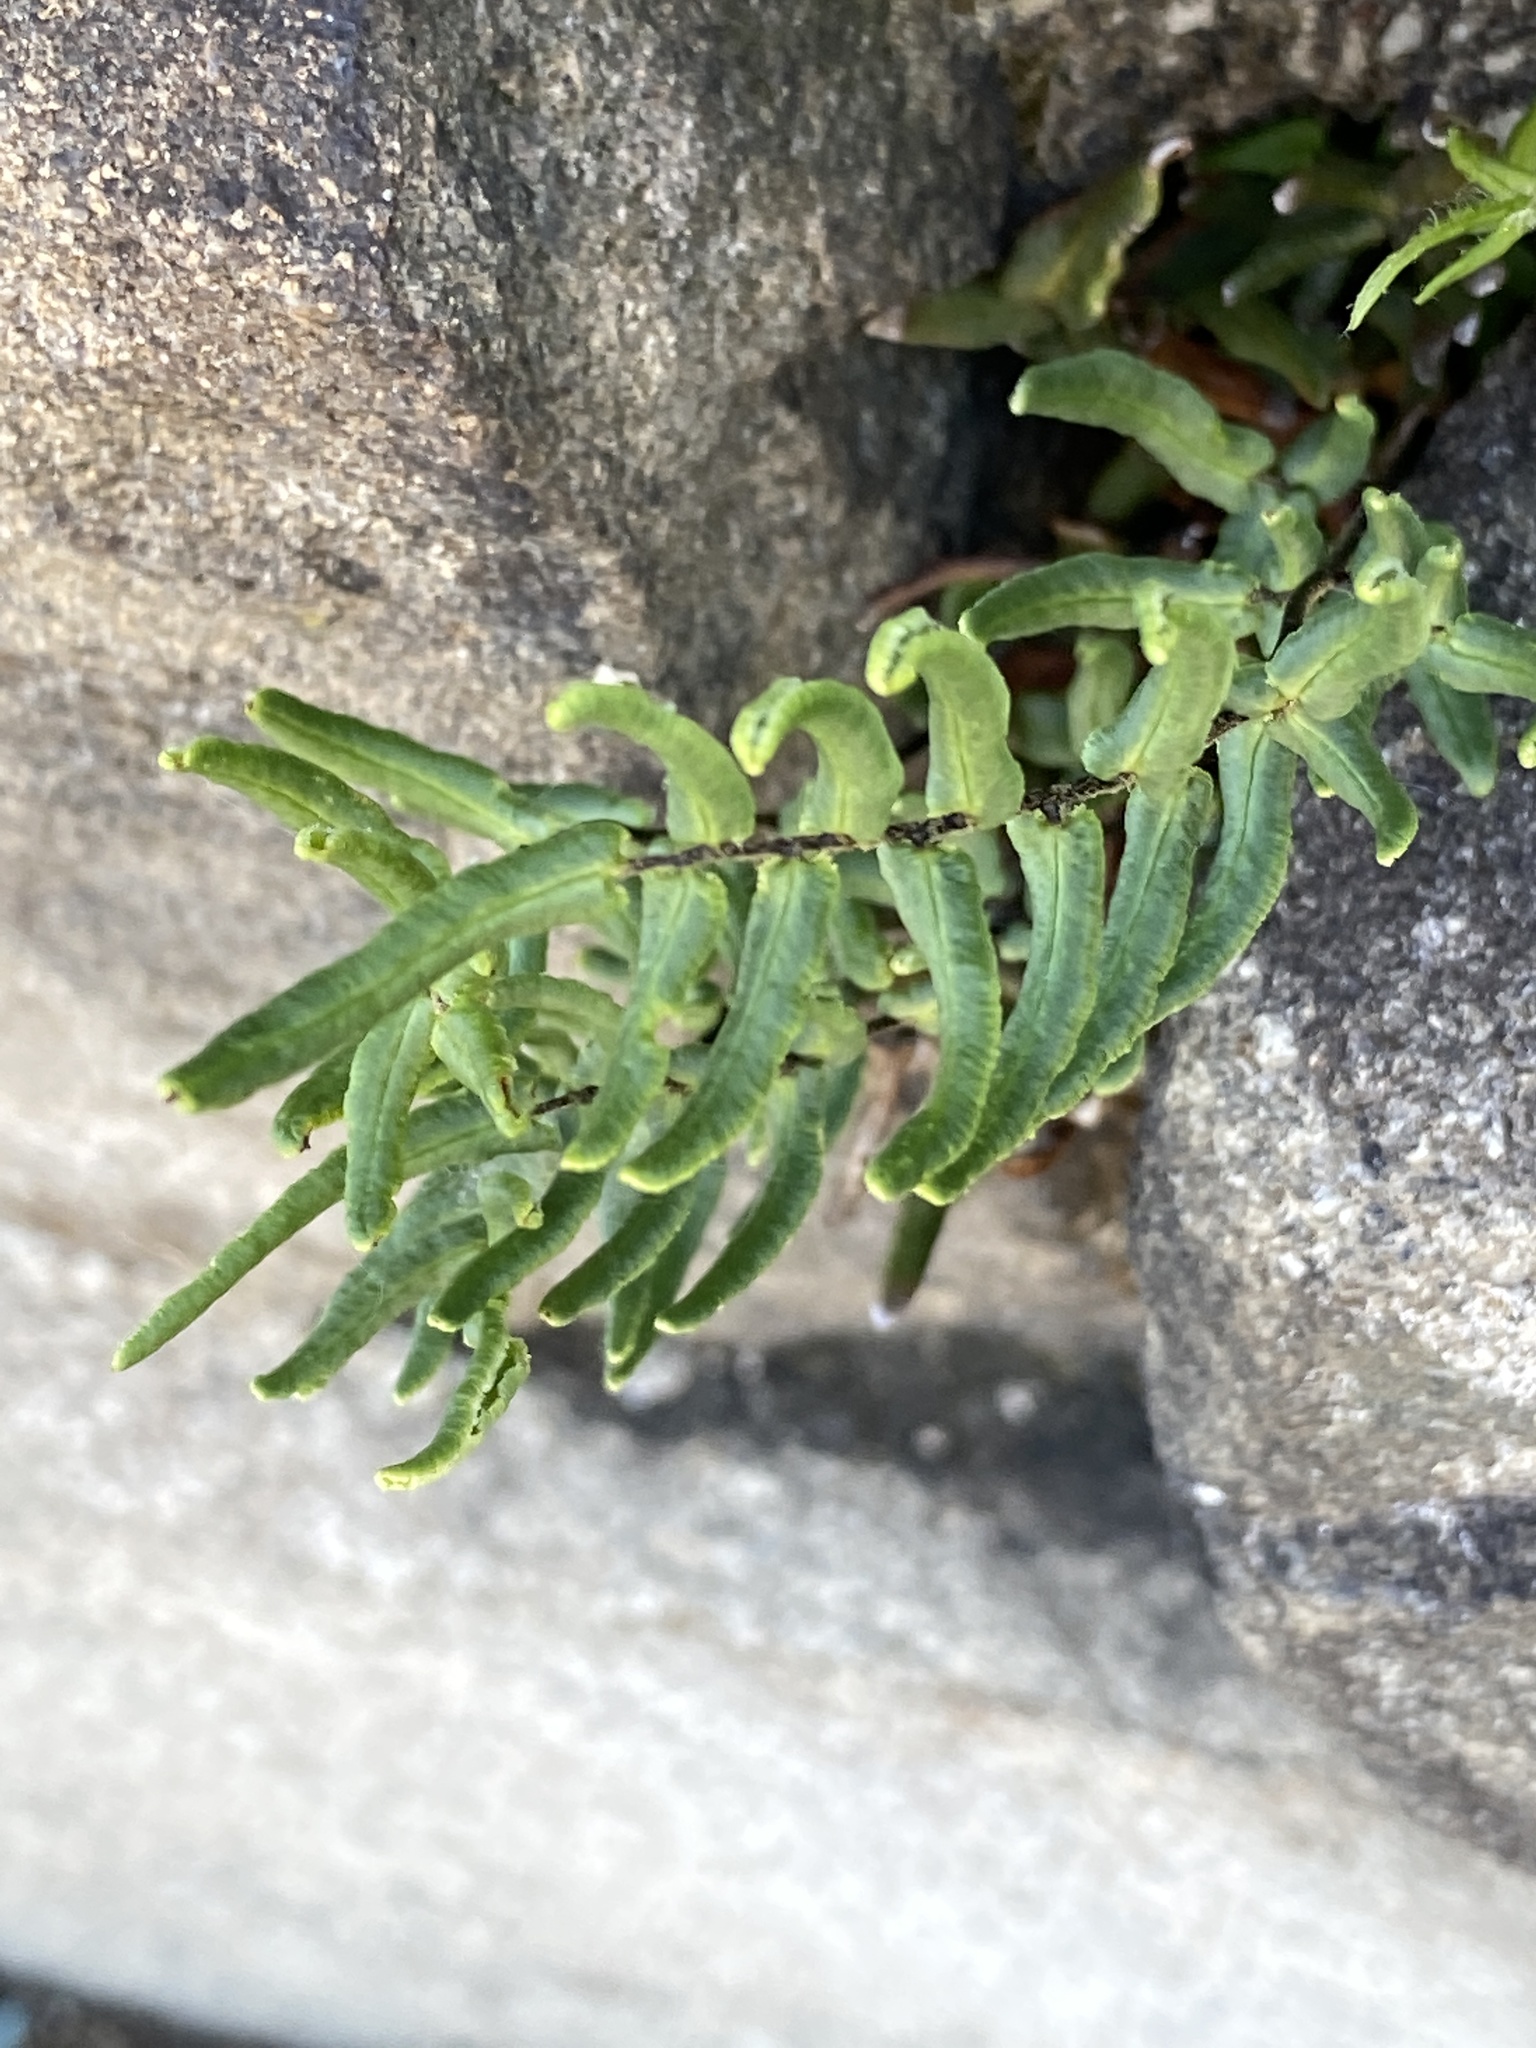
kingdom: Plantae
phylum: Tracheophyta
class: Polypodiopsida
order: Polypodiales
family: Pteridaceae
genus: Pellaea
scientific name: Pellaea atropurpurea
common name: Hairy cliffbrake
